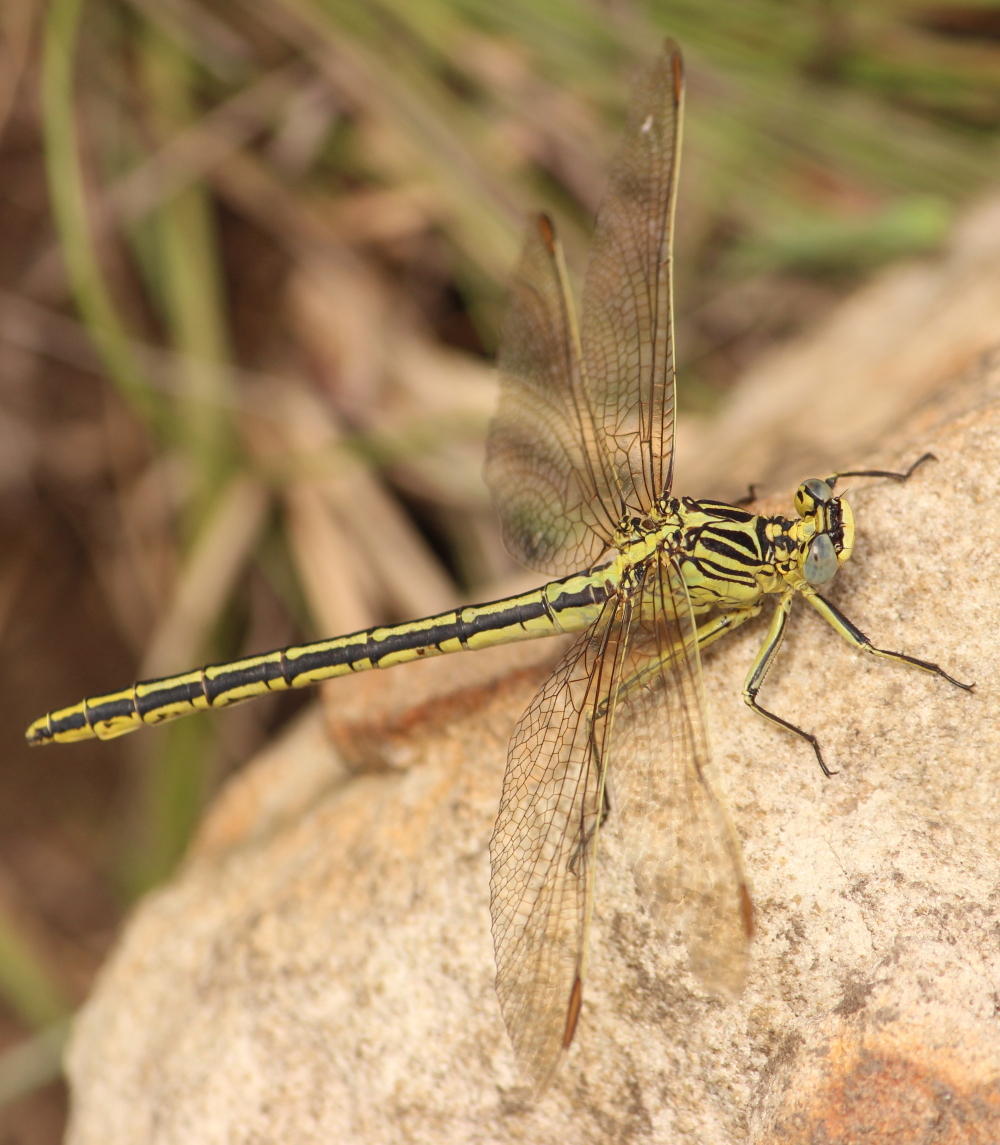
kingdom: Animalia
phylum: Arthropoda
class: Insecta
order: Odonata
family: Gomphidae
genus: Notogomphus
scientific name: Notogomphus praetorius
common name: Southern yellowjack
